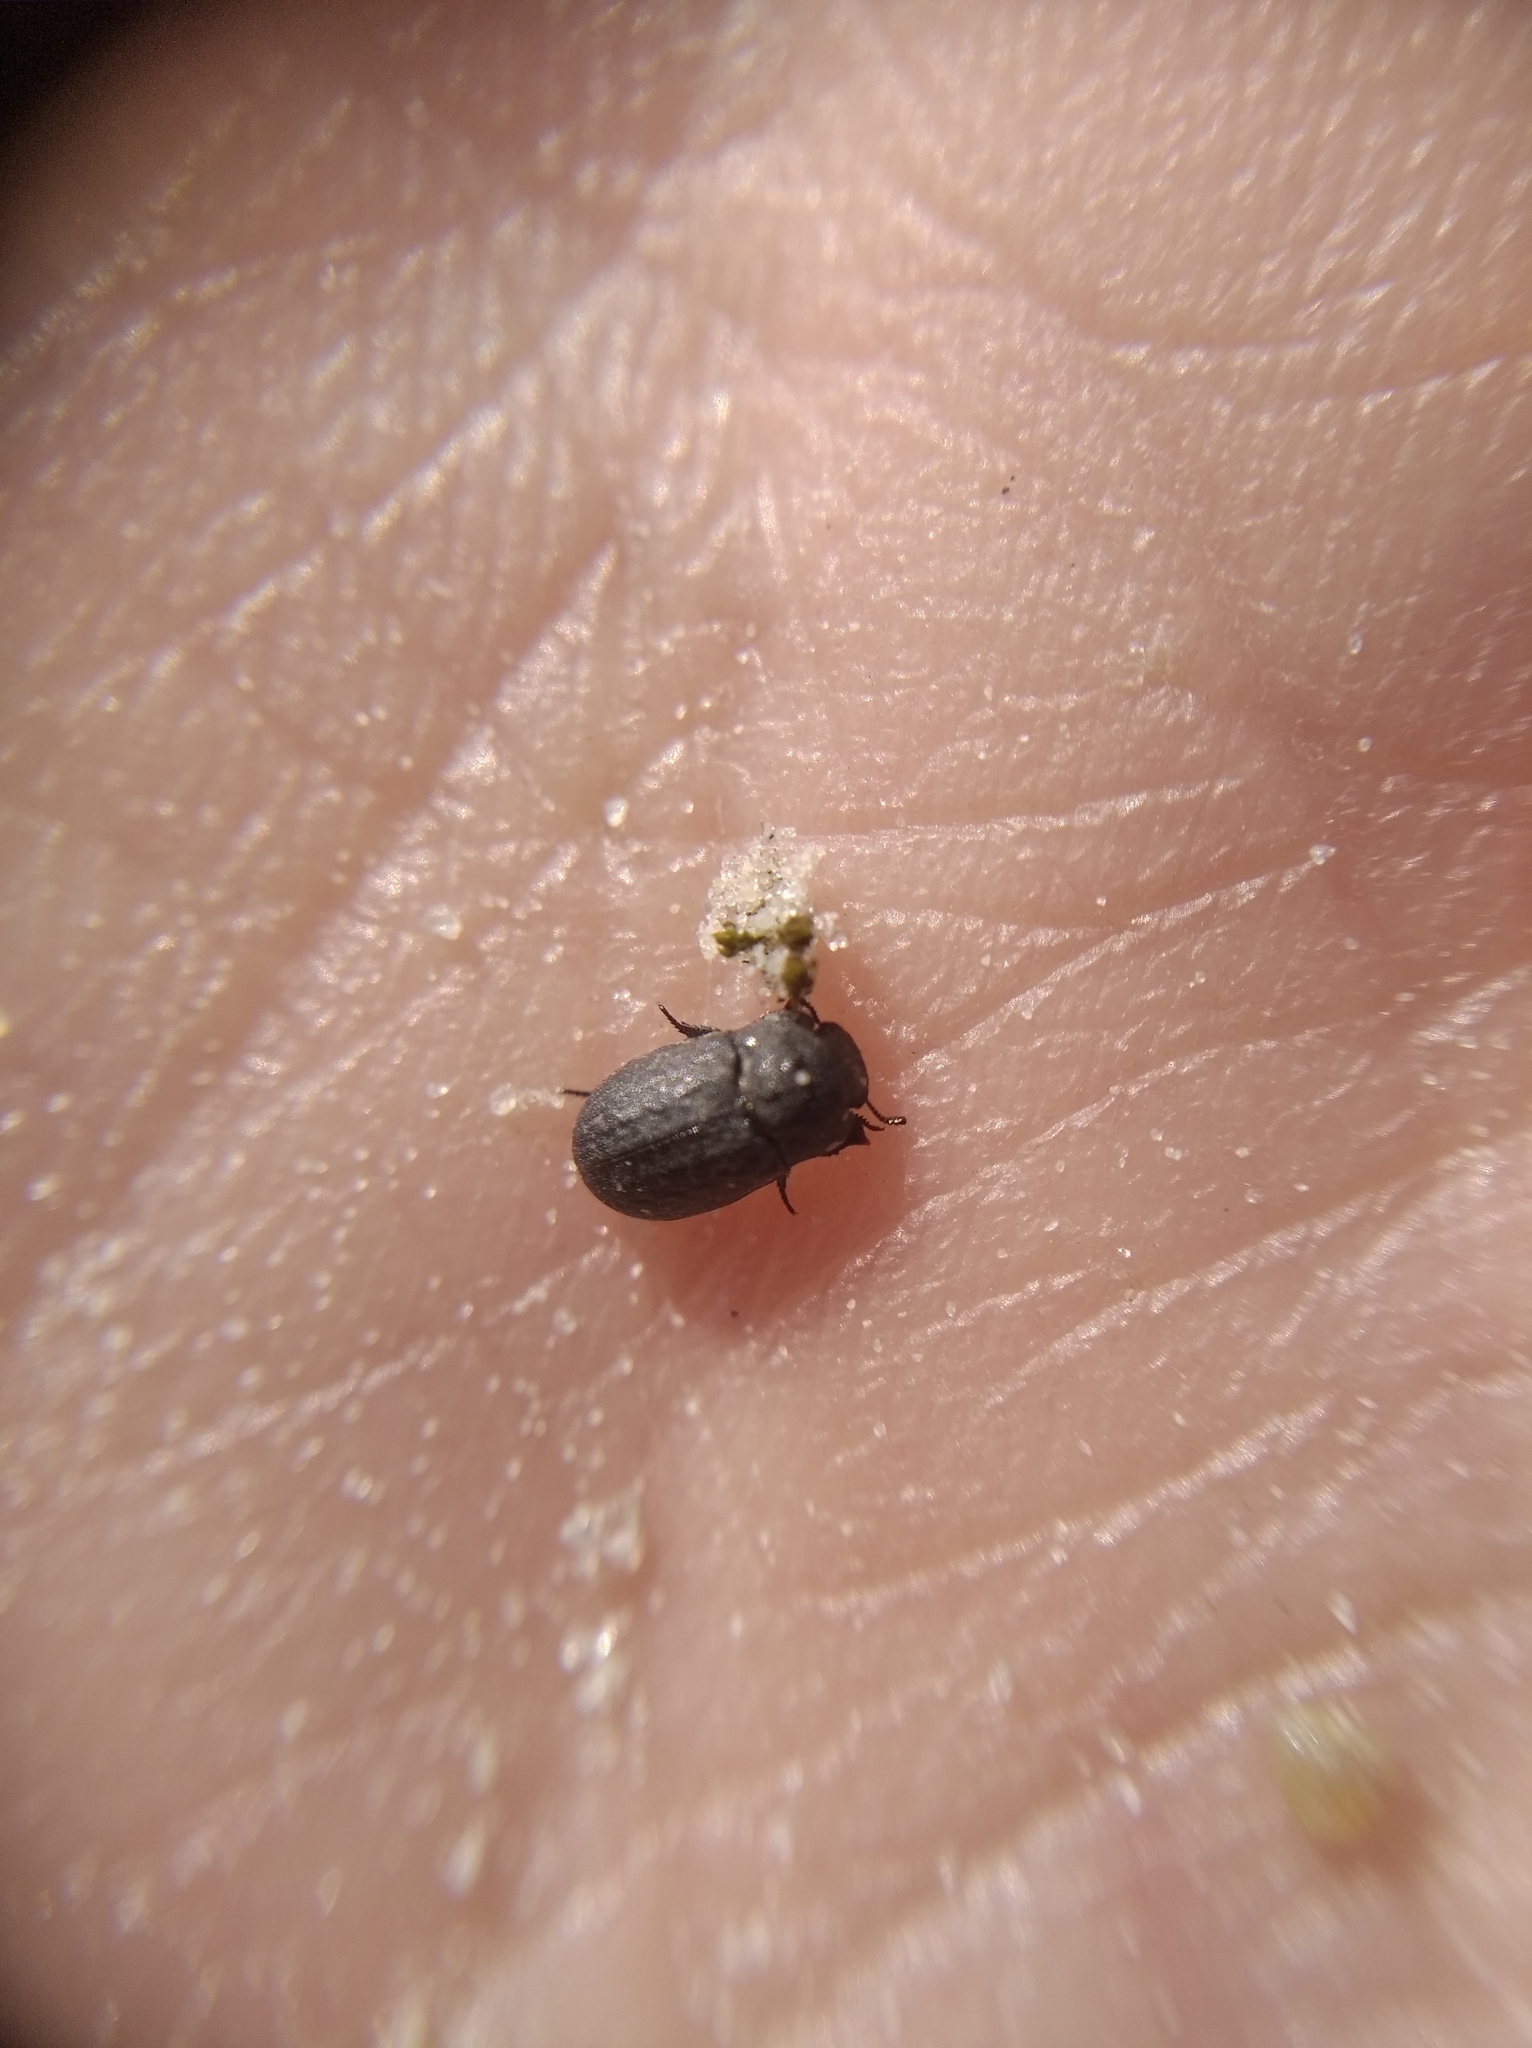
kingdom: Animalia
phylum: Arthropoda
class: Insecta
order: Coleoptera
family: Tenebrionidae
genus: Opatrum
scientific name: Opatrum sabulosum
